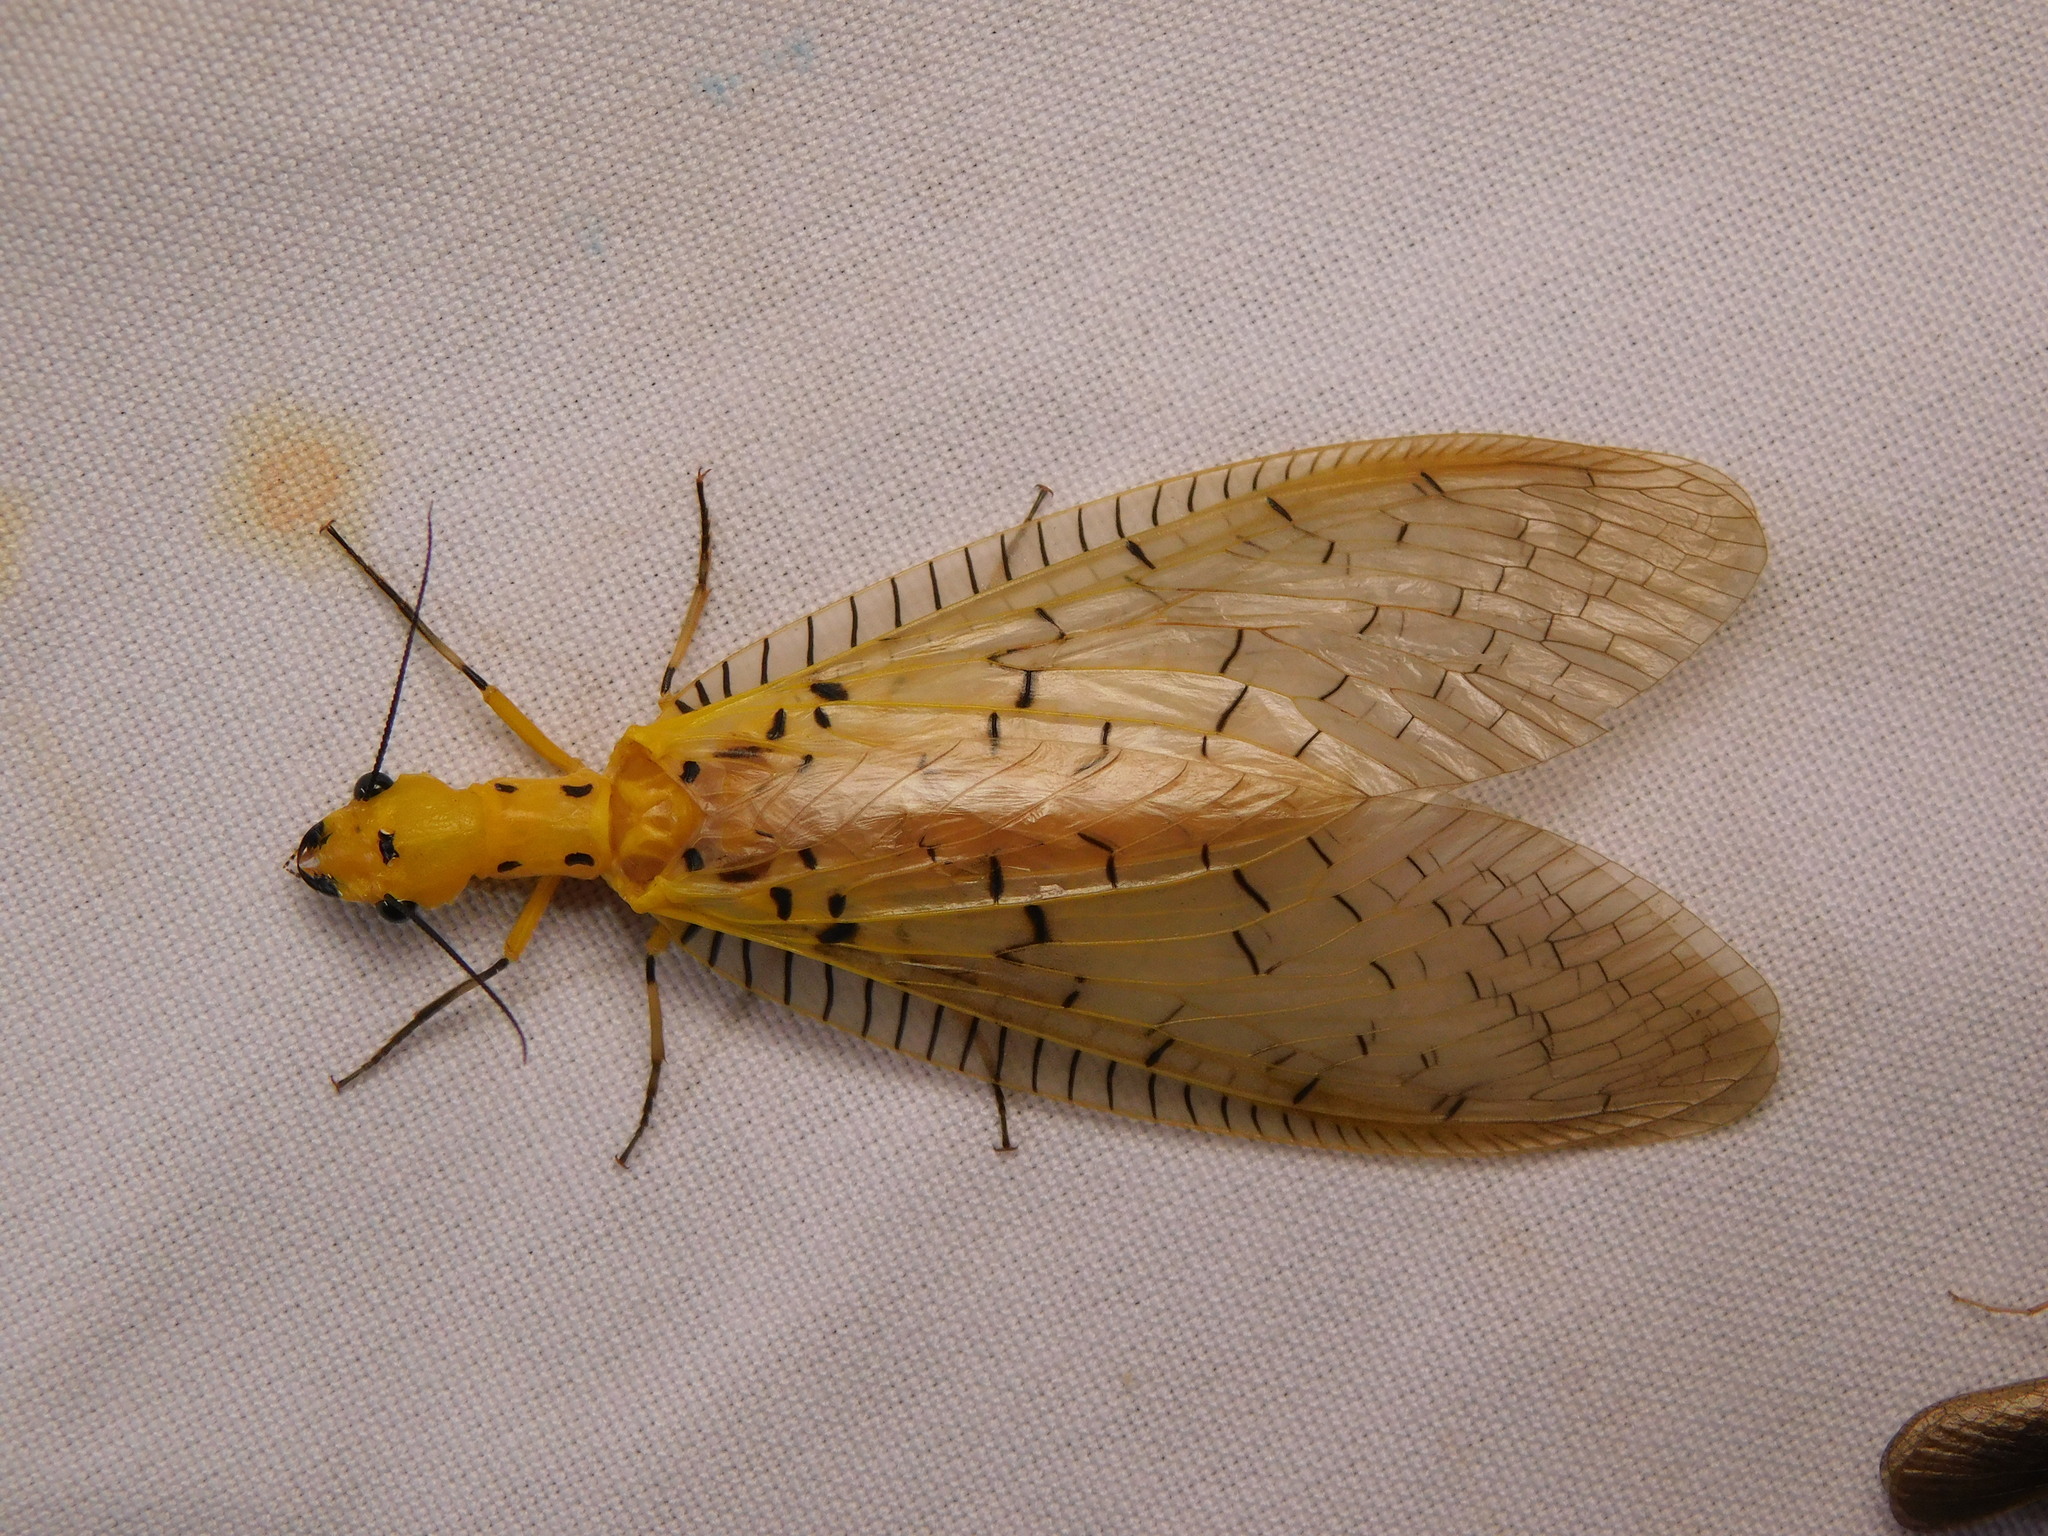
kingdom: Animalia
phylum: Arthropoda
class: Insecta
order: Megaloptera
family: Corydalidae
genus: Nevromus
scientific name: Nevromus austroindicus
